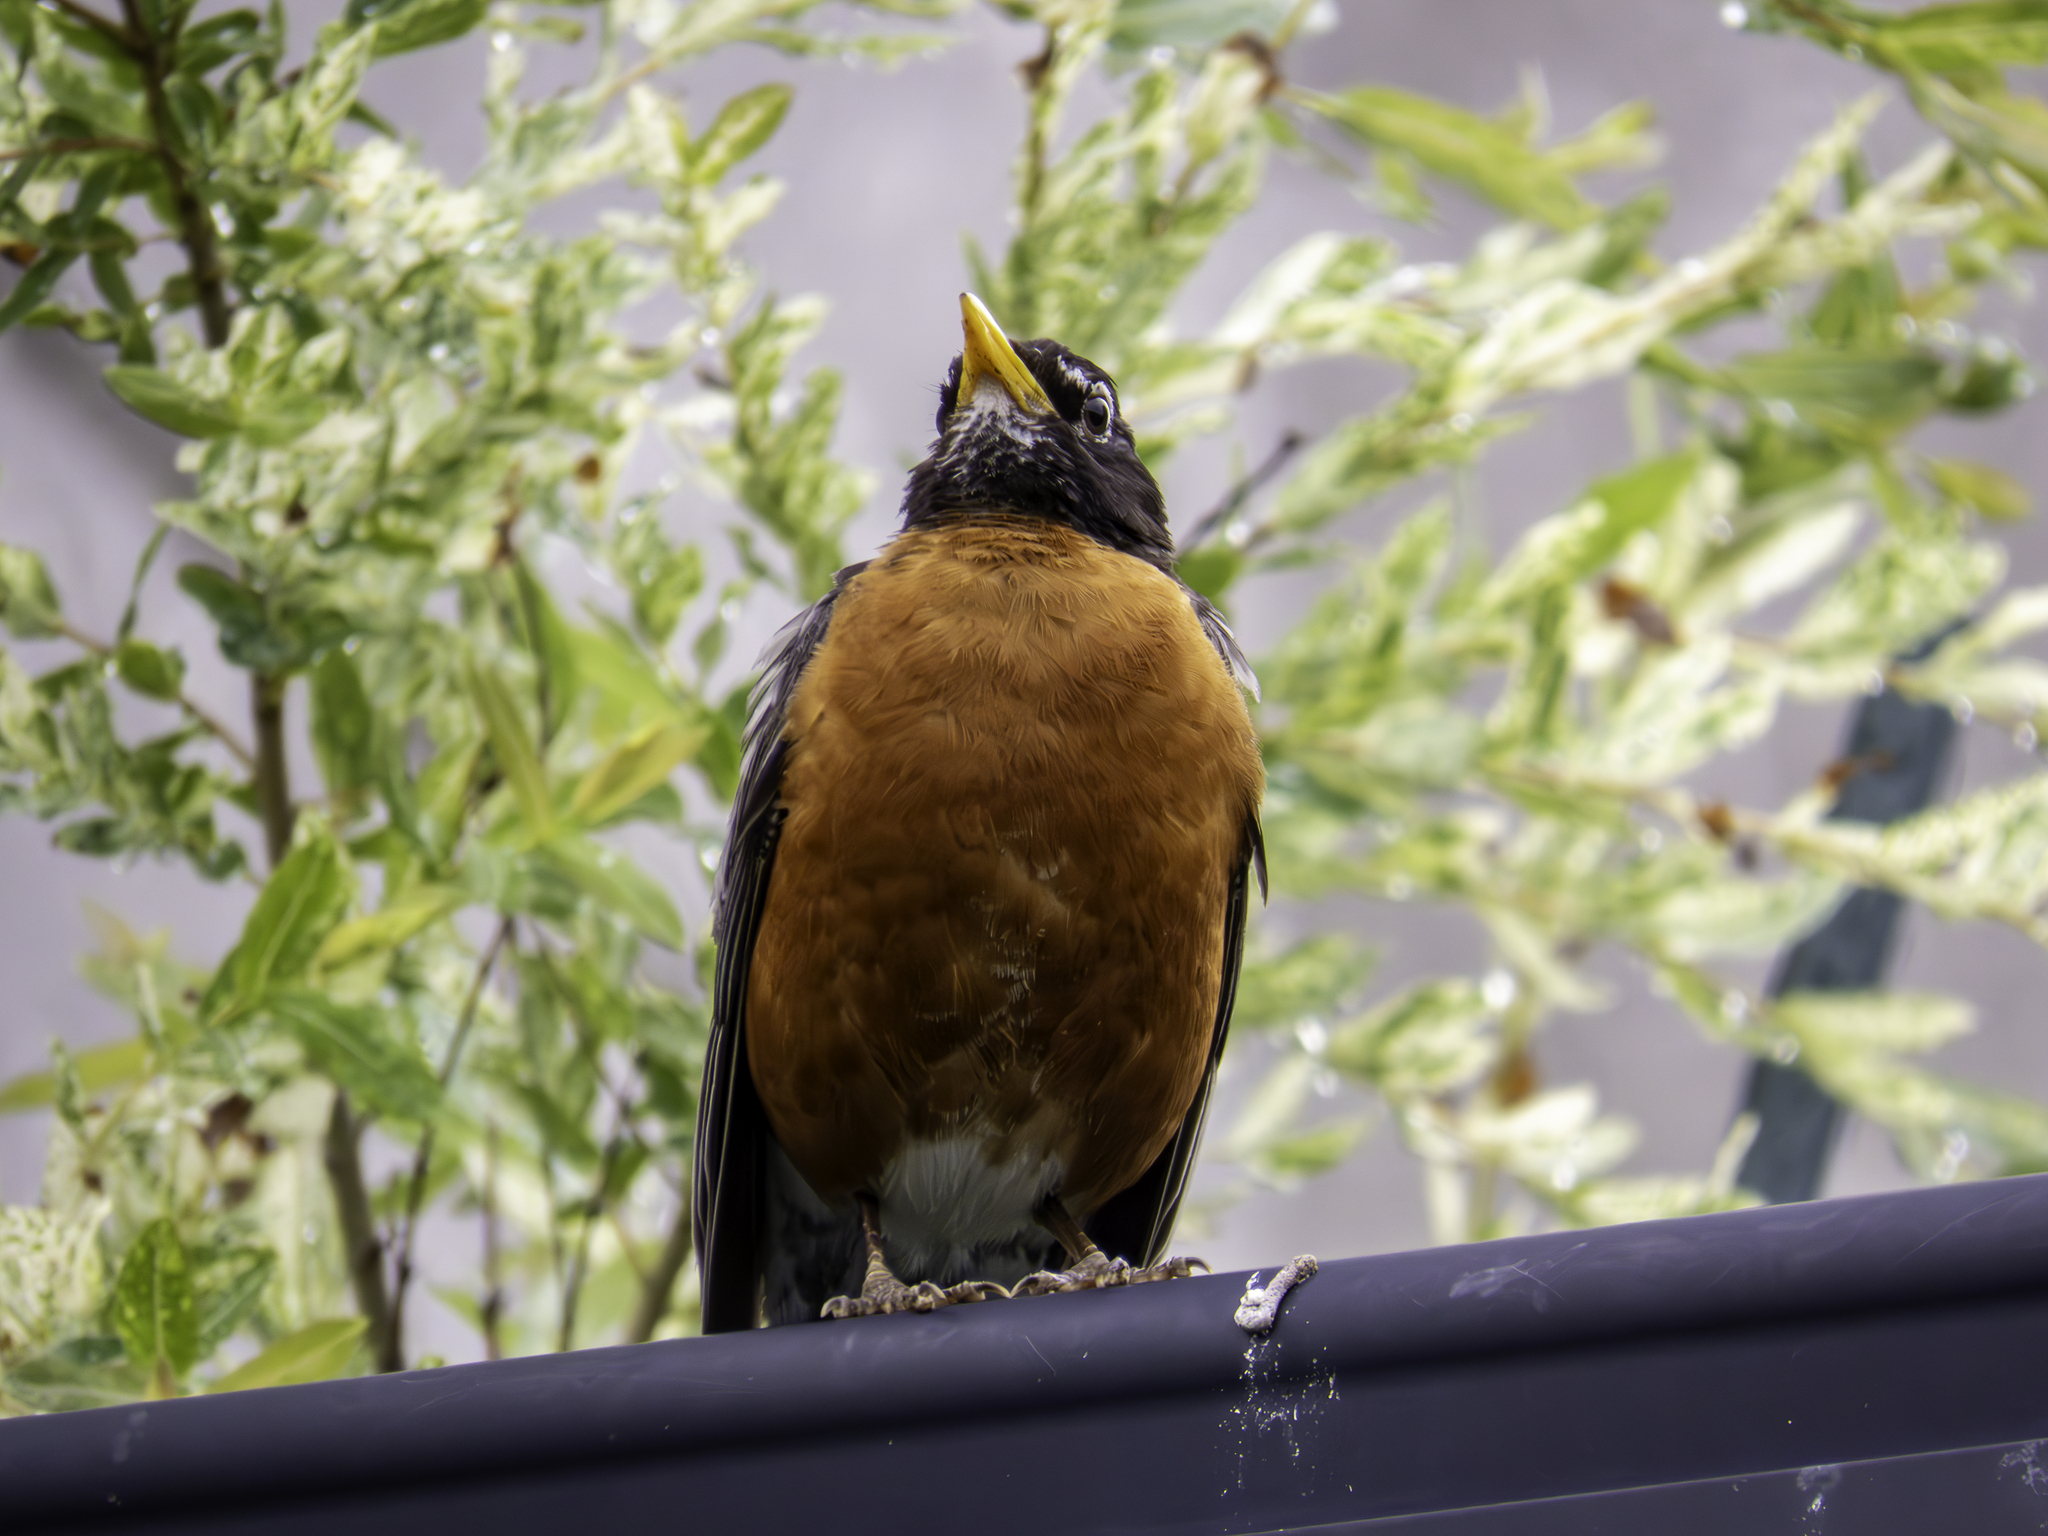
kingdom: Animalia
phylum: Chordata
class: Aves
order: Passeriformes
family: Turdidae
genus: Turdus
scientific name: Turdus migratorius
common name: American robin
